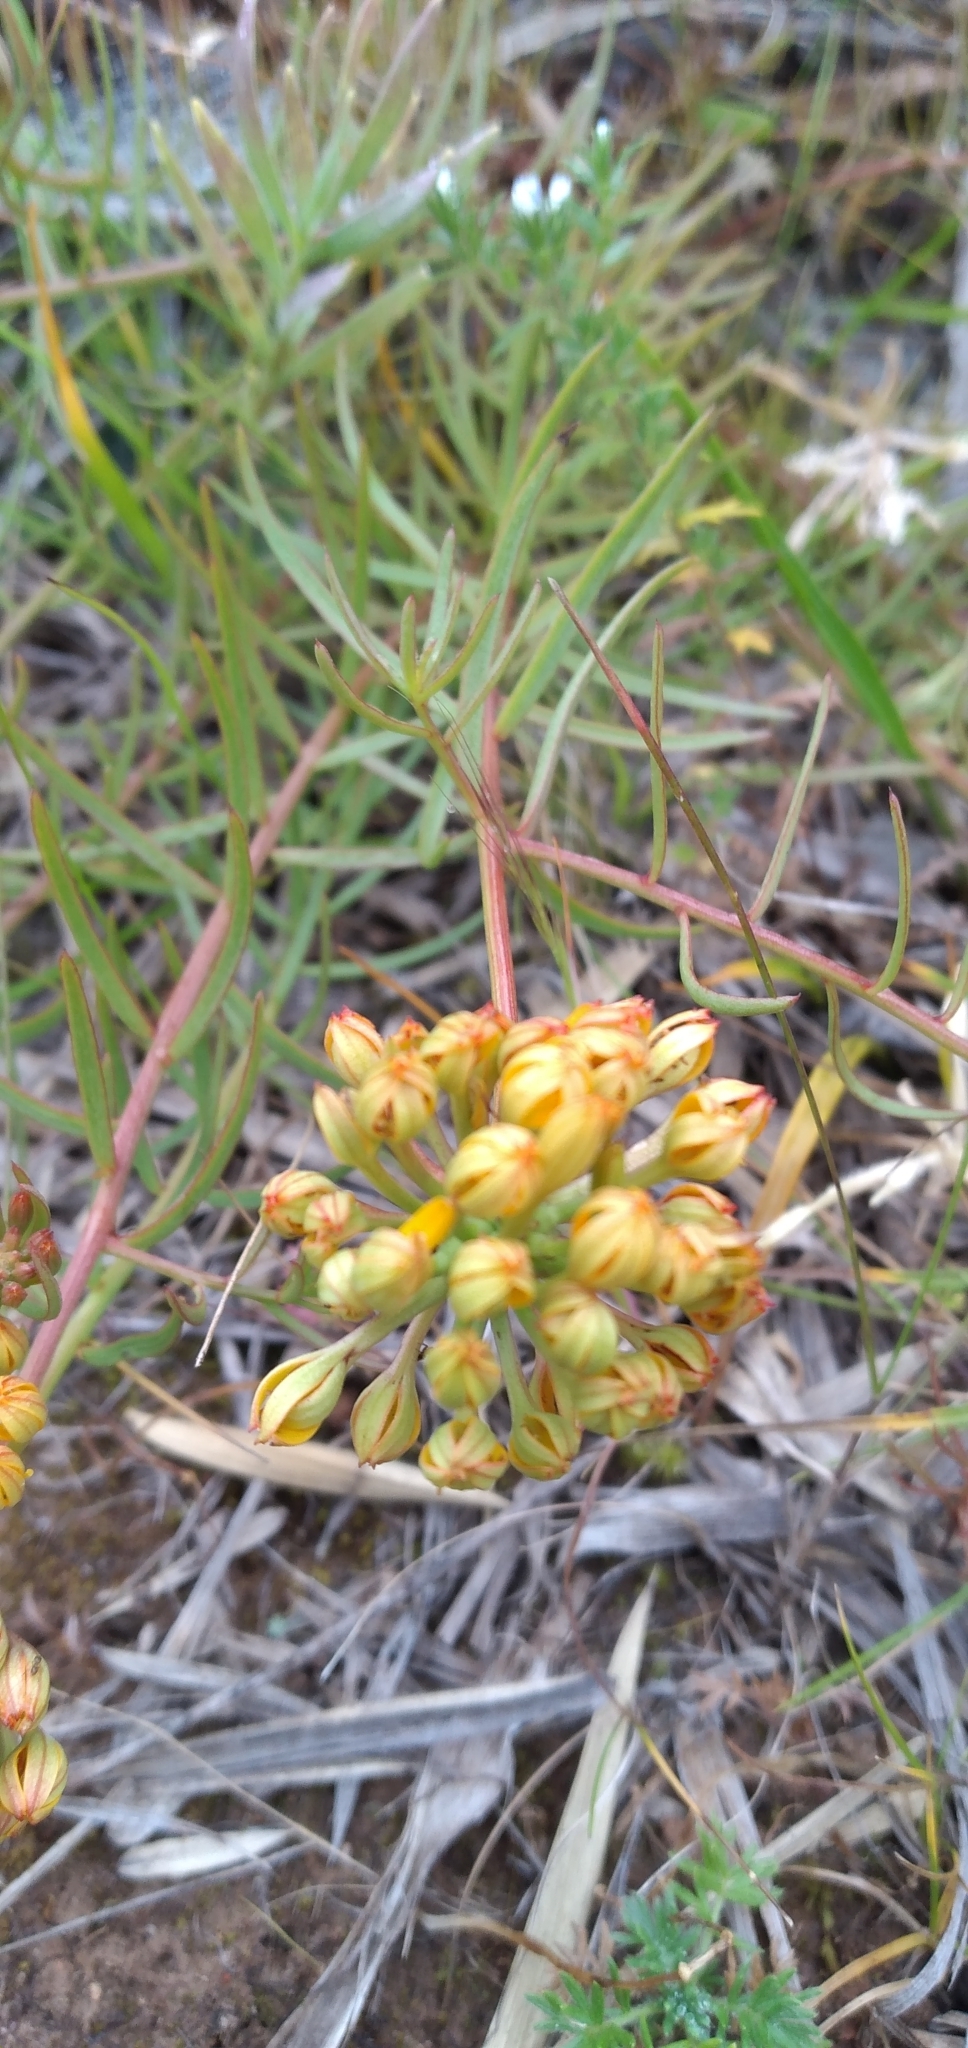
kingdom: Plantae
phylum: Tracheophyta
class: Magnoliopsida
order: Santalales
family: Schoepfiaceae
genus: Quinchamalium
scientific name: Quinchamalium chilense
